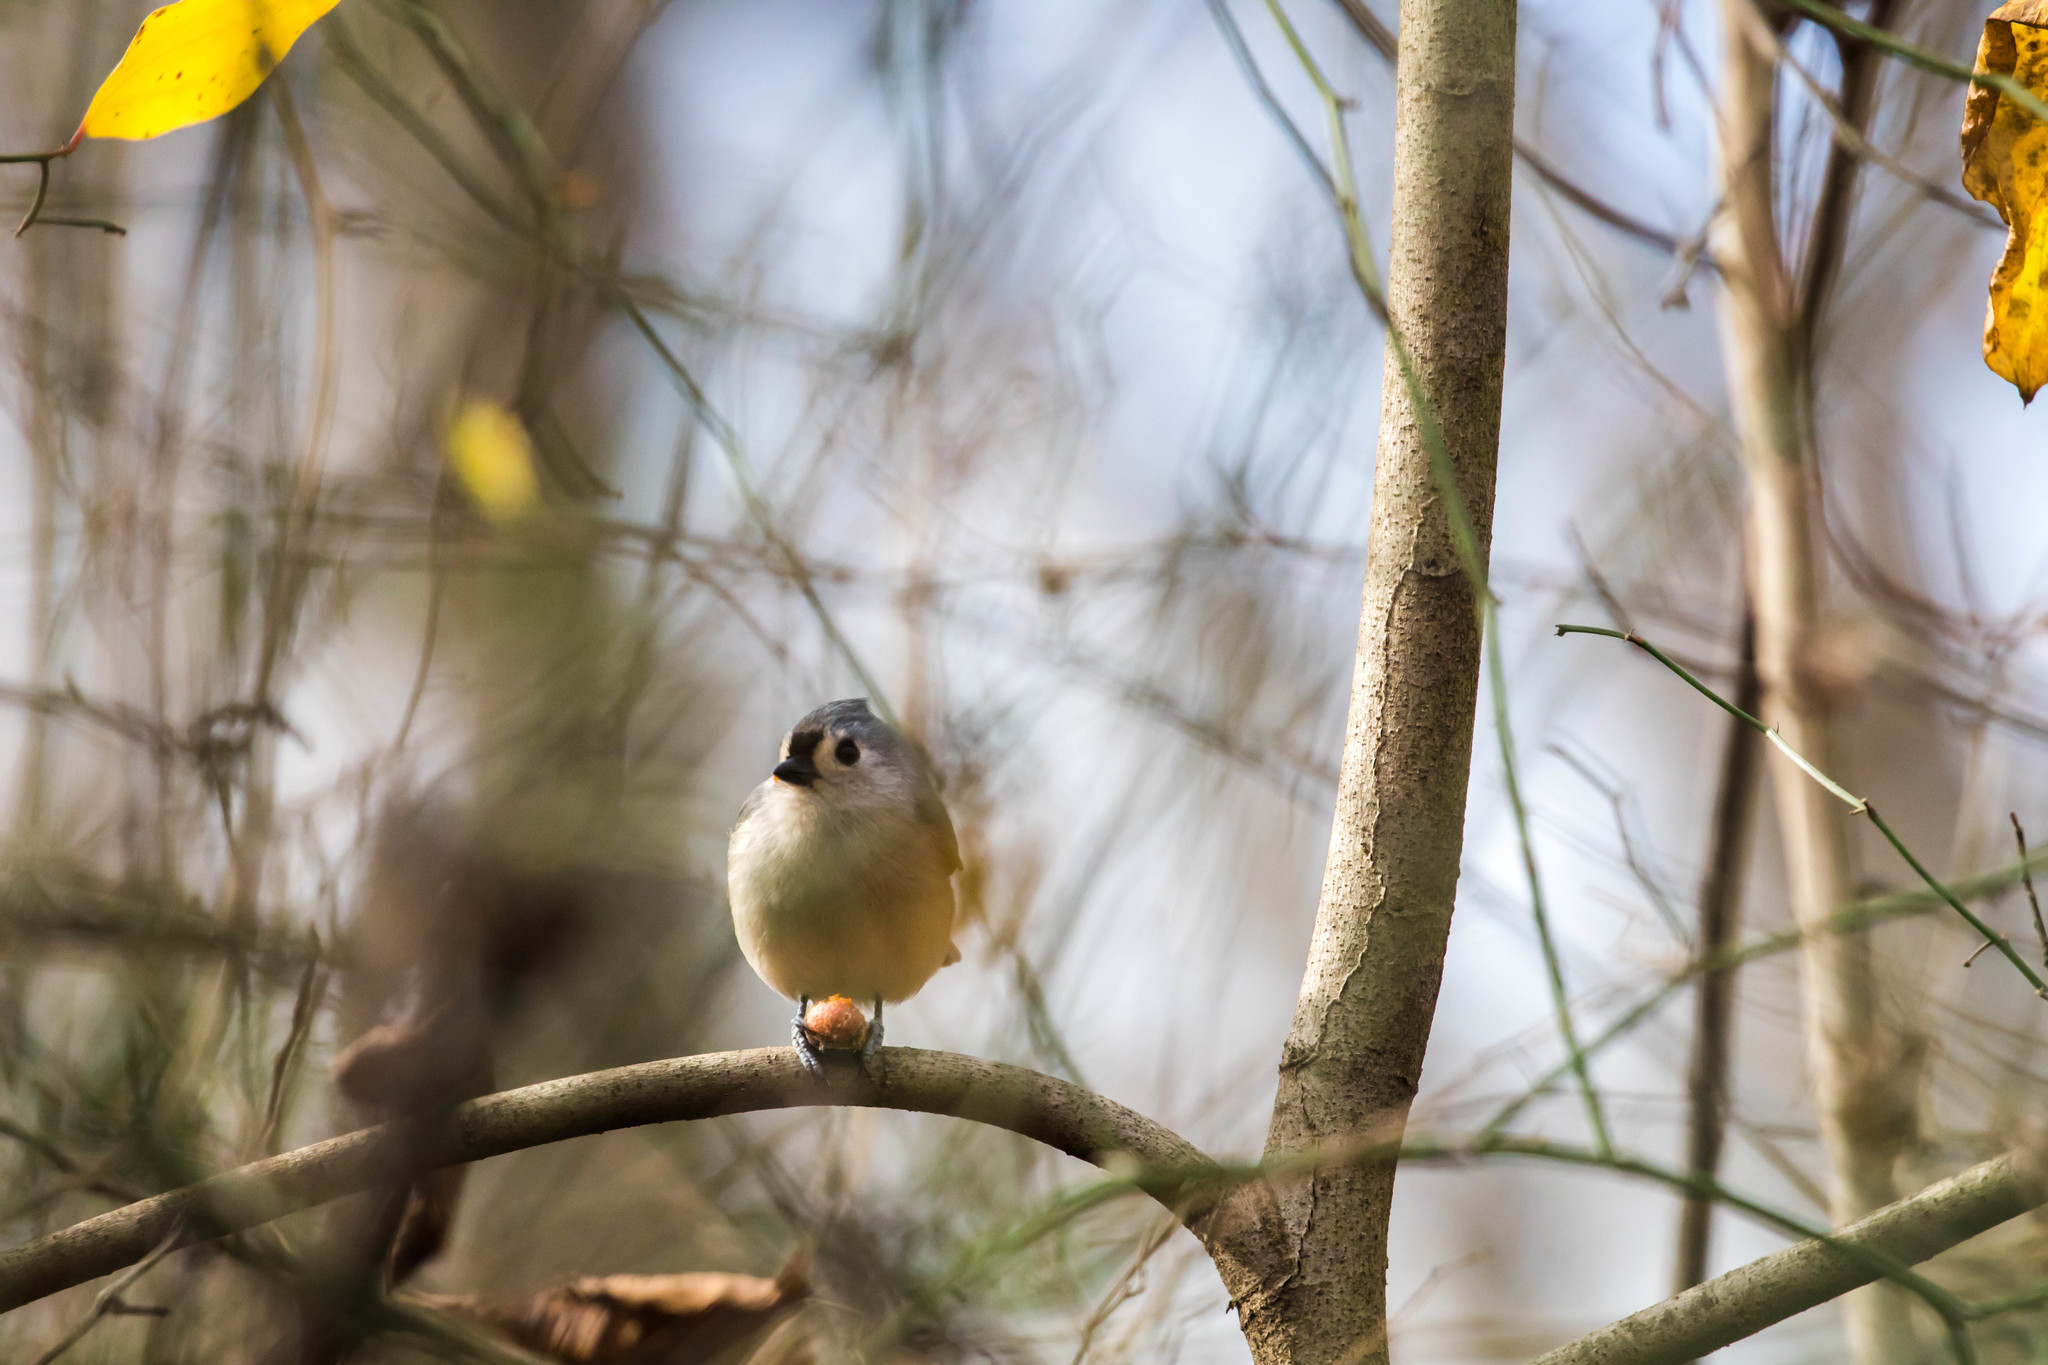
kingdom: Animalia
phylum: Chordata
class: Aves
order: Passeriformes
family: Paridae
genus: Baeolophus
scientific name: Baeolophus bicolor
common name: Tufted titmouse
